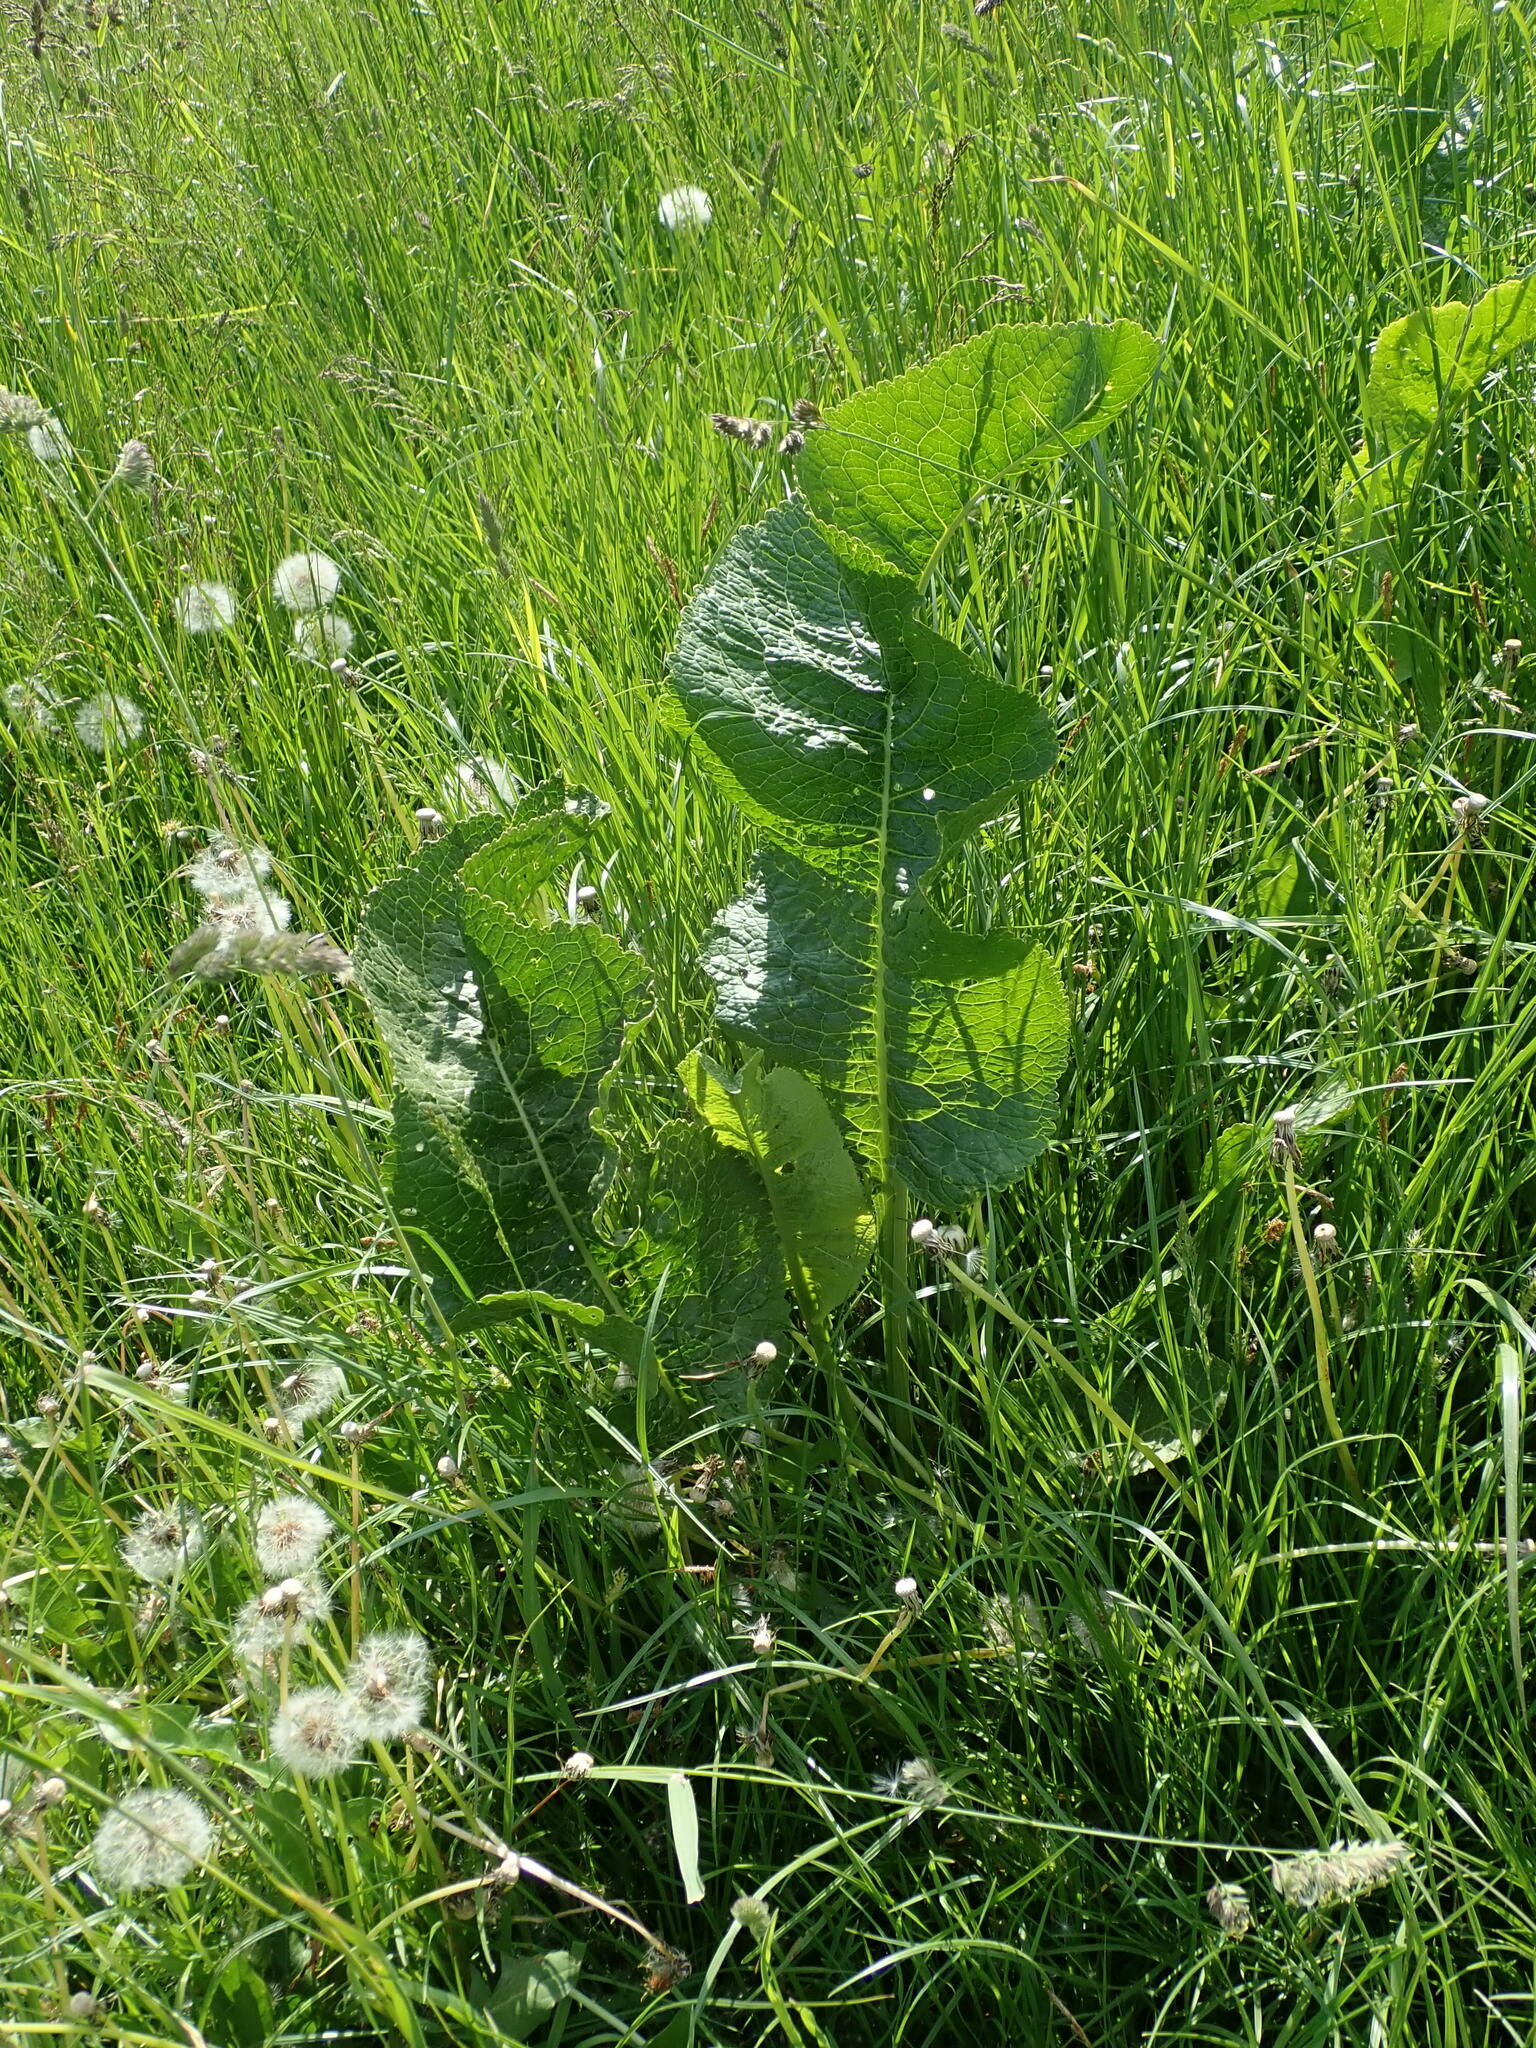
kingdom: Plantae
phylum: Tracheophyta
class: Magnoliopsida
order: Brassicales
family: Brassicaceae
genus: Armoracia
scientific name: Armoracia rusticana
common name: Horseradish
